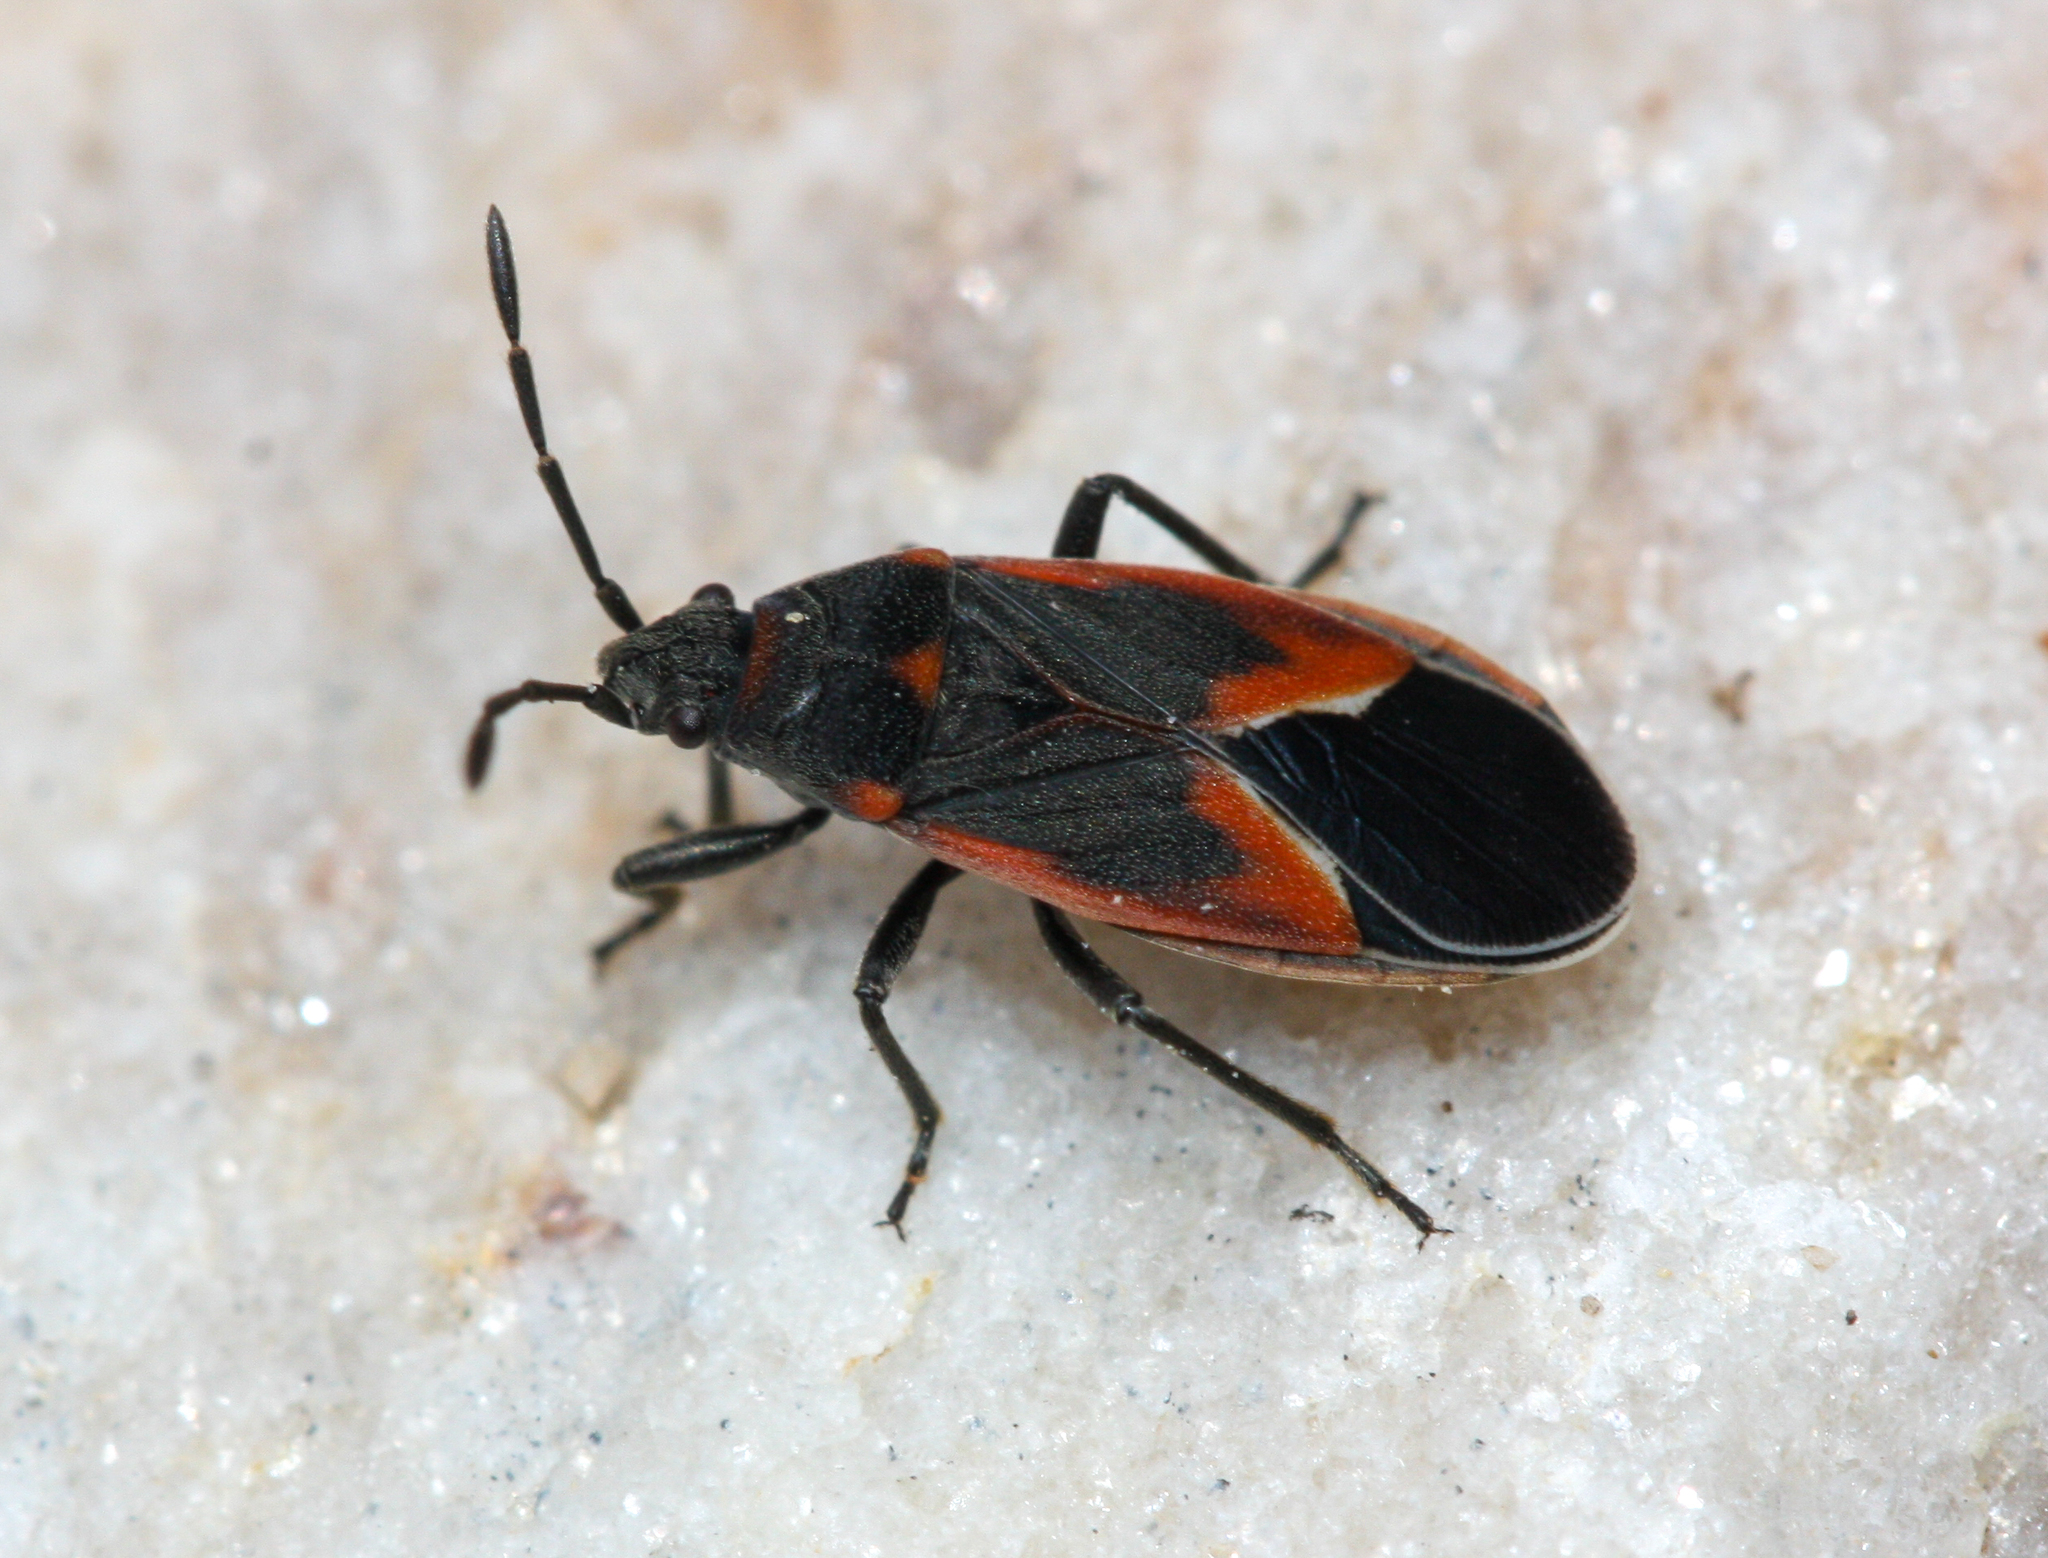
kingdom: Animalia
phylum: Arthropoda
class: Insecta
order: Hemiptera
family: Lygaeidae
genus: Melacoryphus
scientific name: Melacoryphus admirabilis
